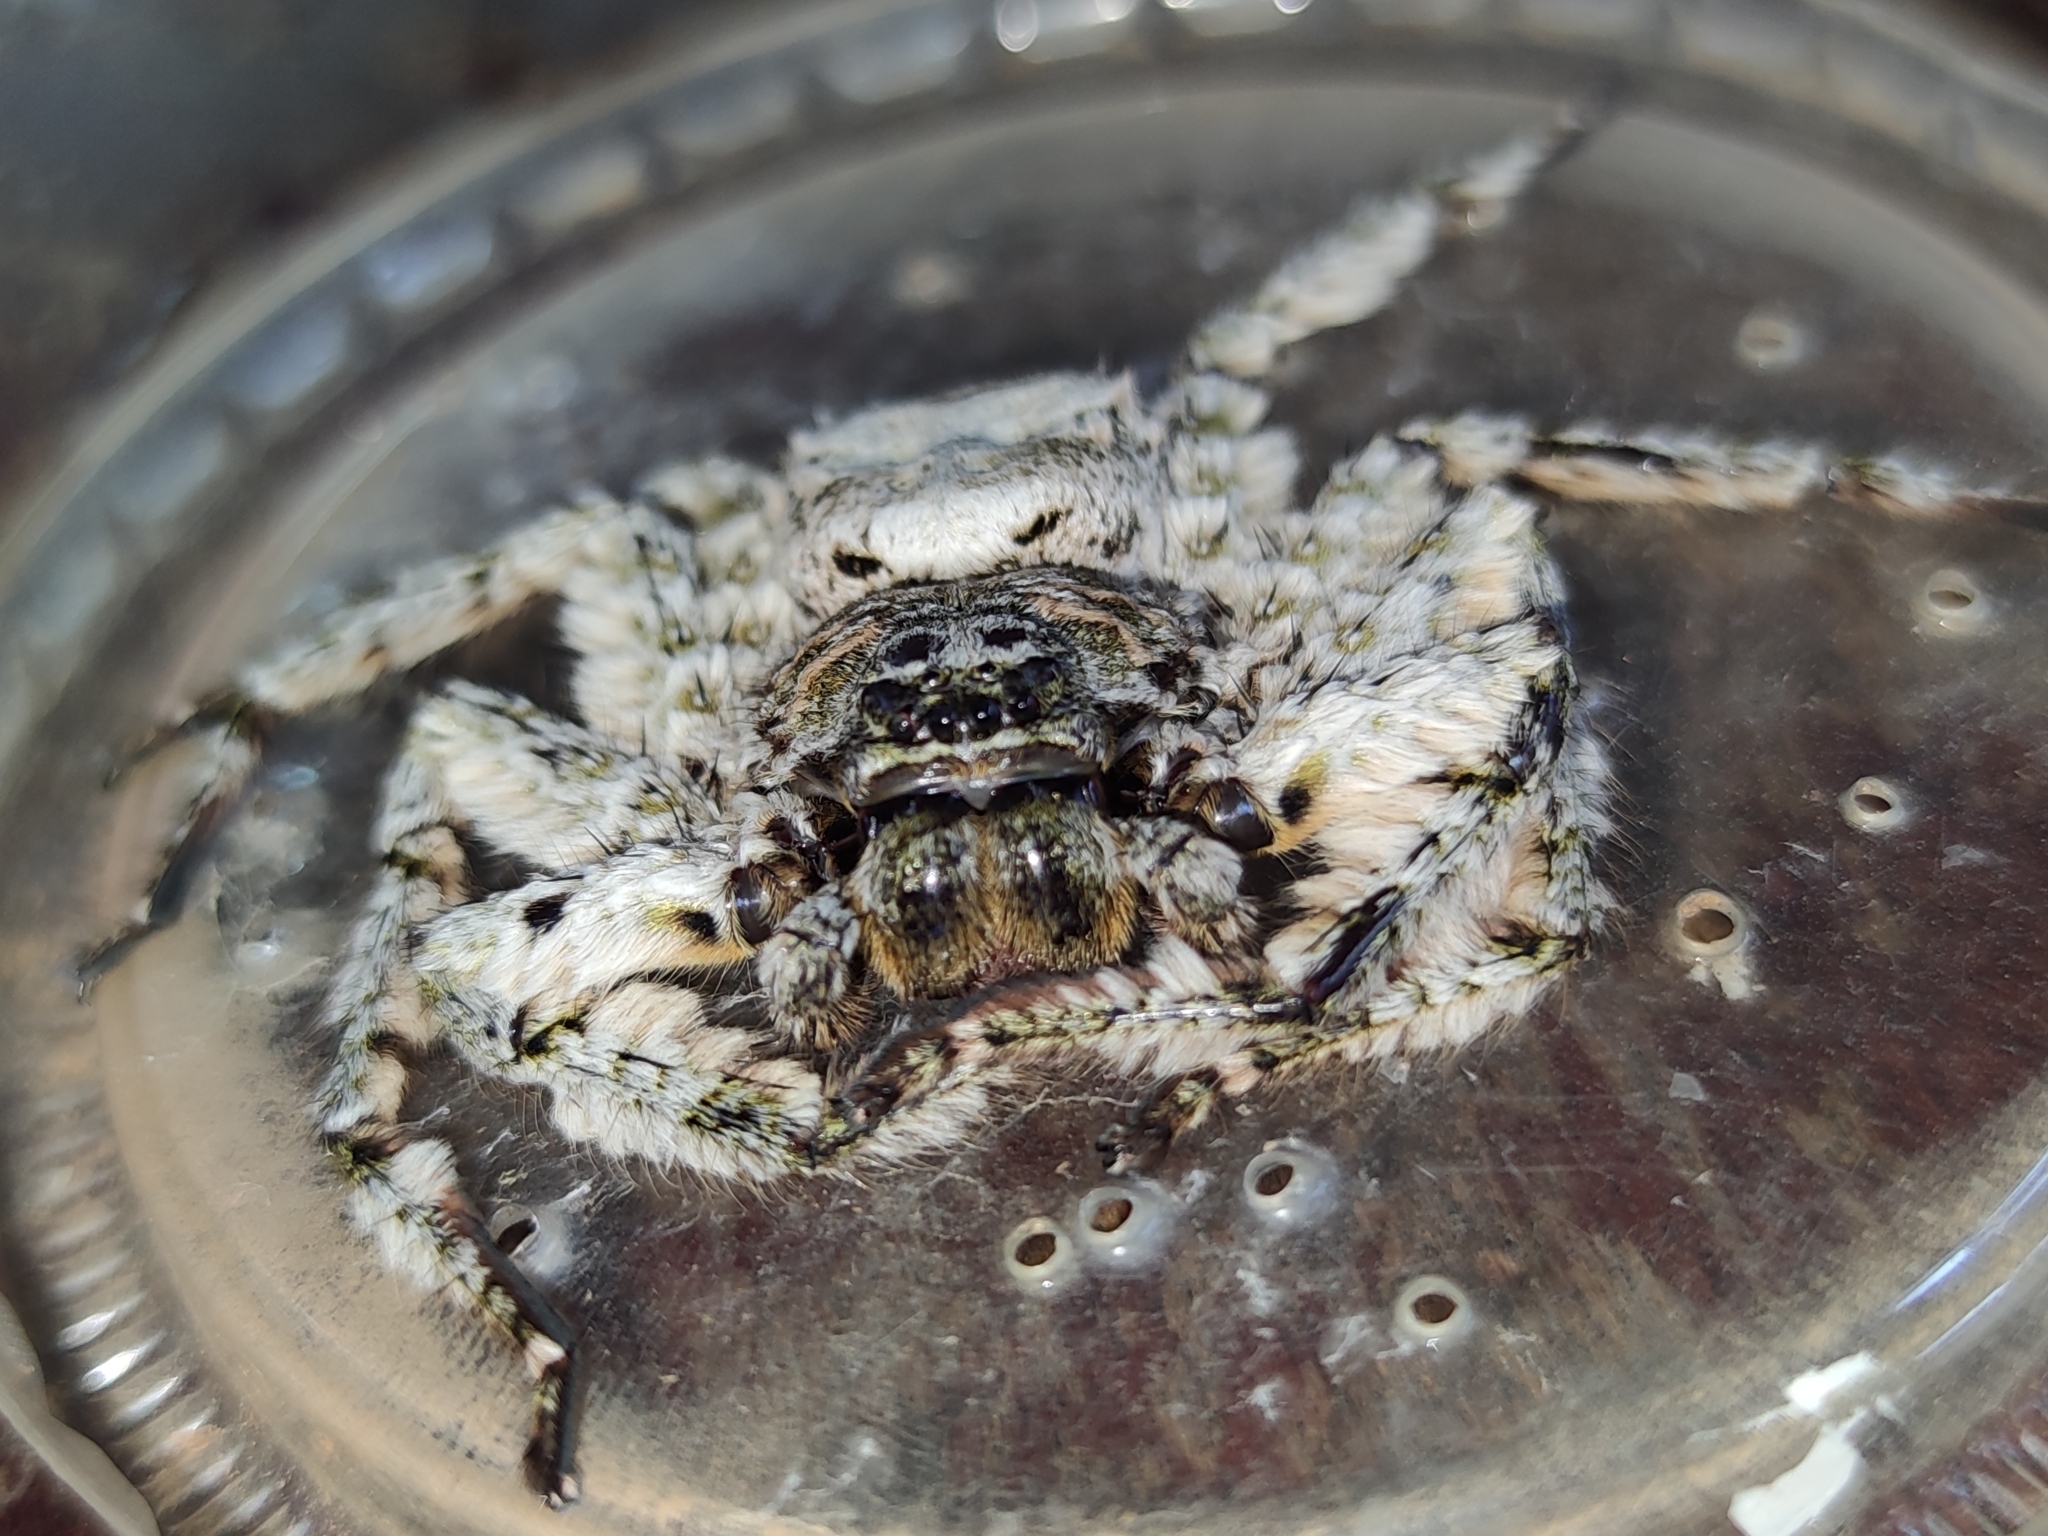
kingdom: Animalia
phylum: Arthropoda
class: Arachnida
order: Araneae
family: Sparassidae
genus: Barylestis
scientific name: Barylestis saaristoi
